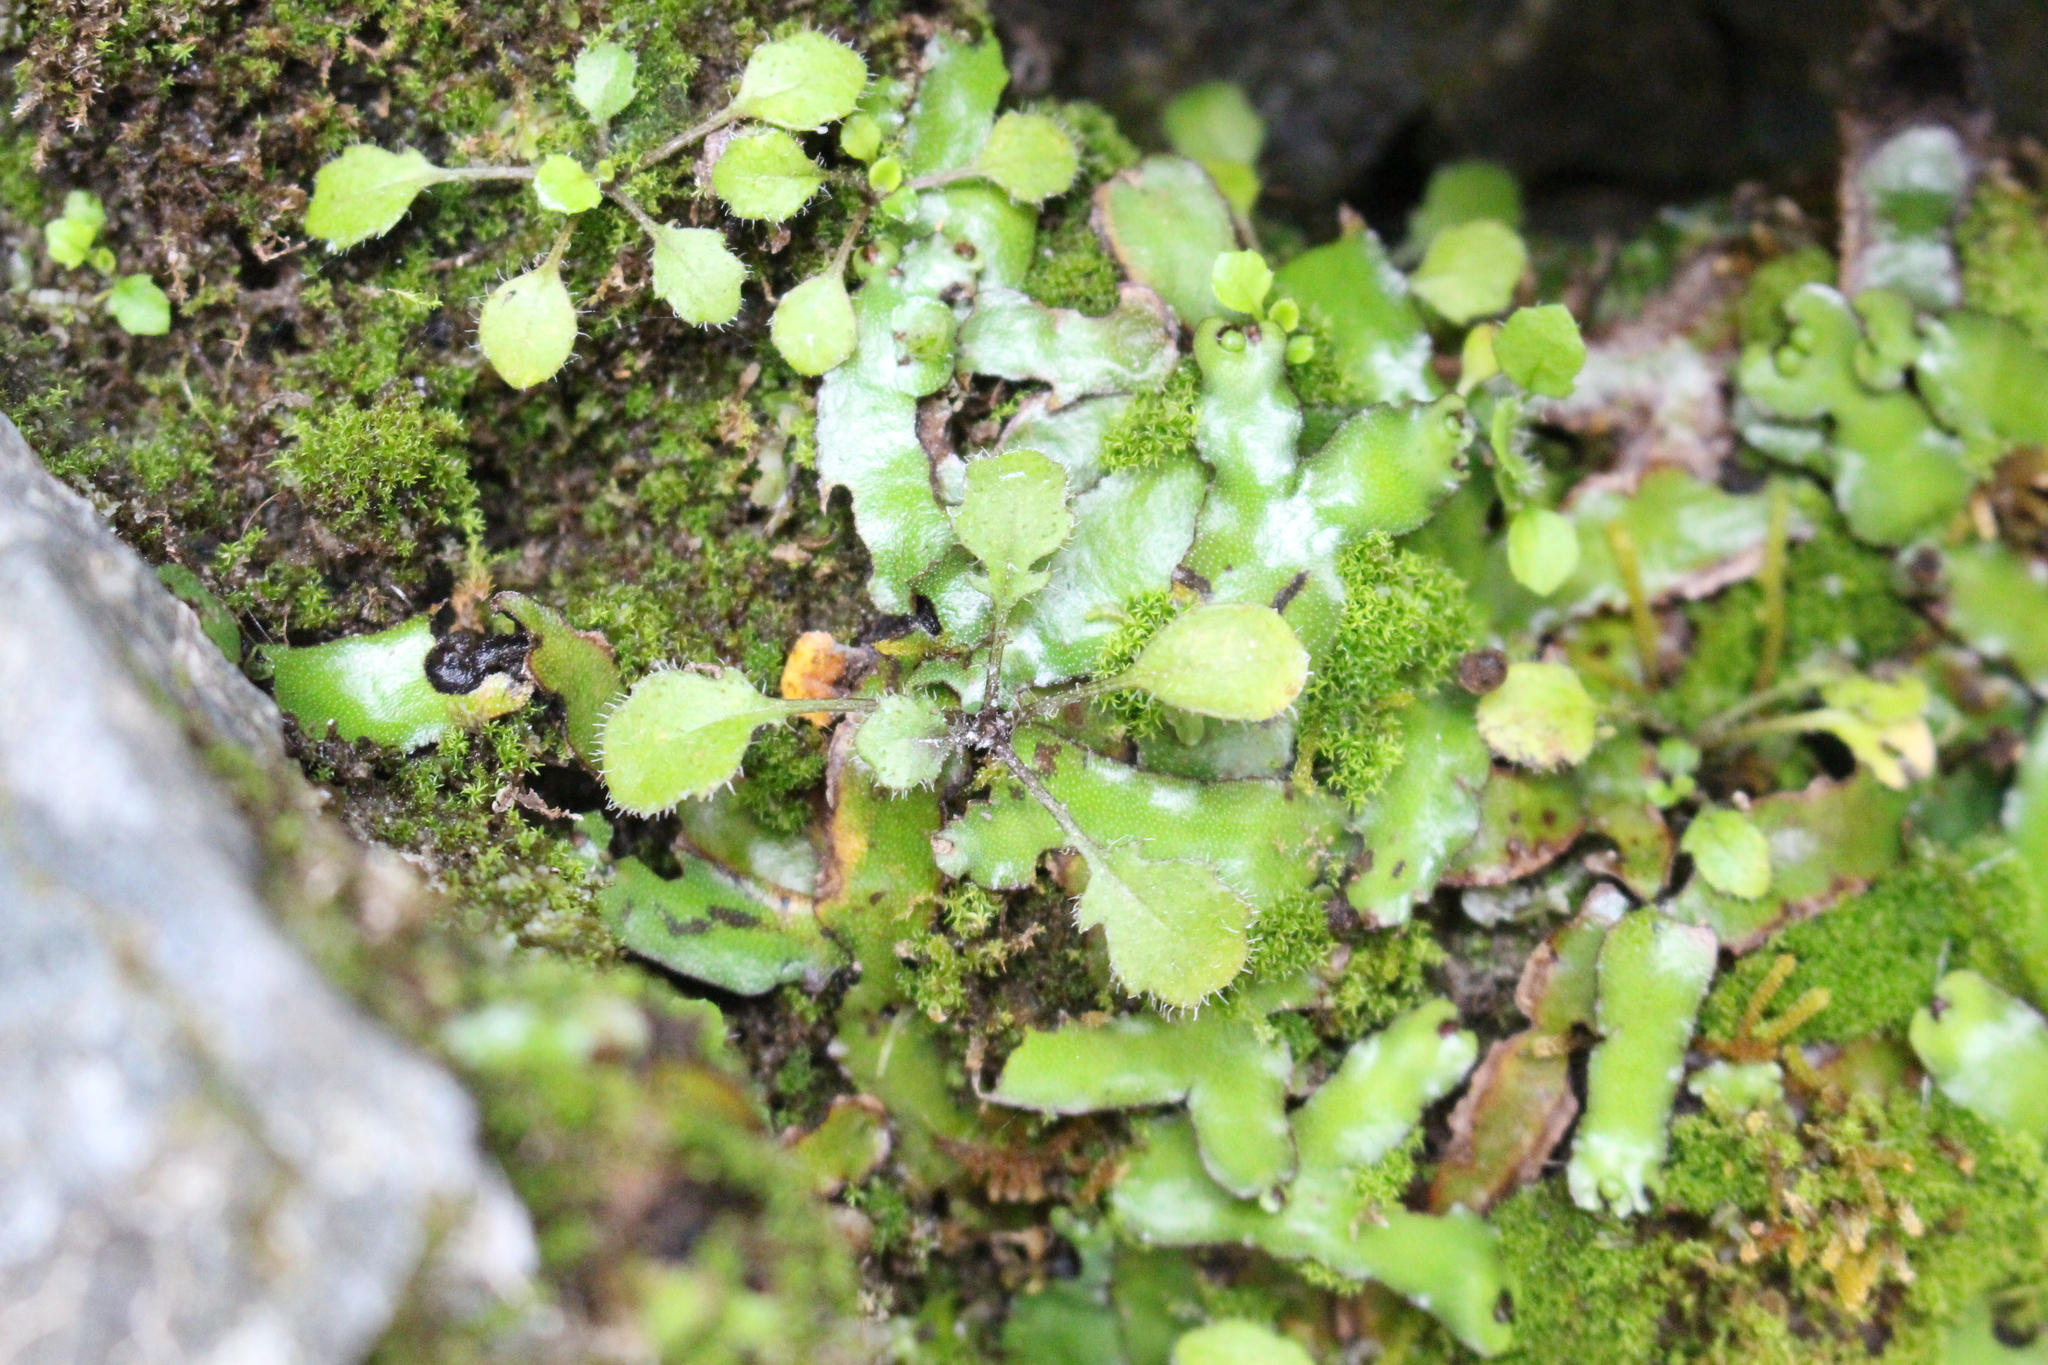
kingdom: Plantae
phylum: Tracheophyta
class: Magnoliopsida
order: Asterales
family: Asteraceae
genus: Lagenophora
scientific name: Lagenophora pumila
